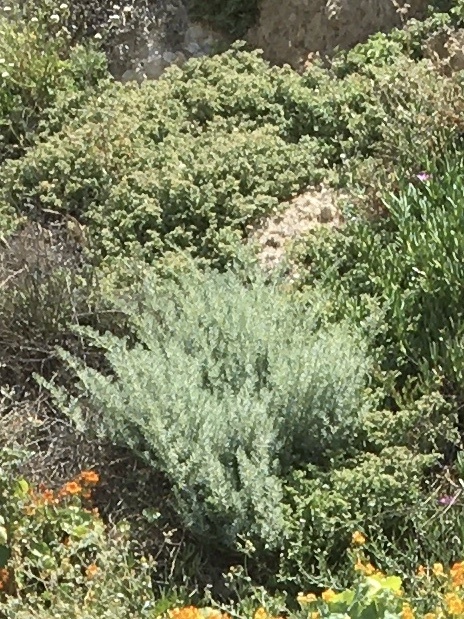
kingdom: Plantae
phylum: Tracheophyta
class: Magnoliopsida
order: Asterales
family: Asteraceae
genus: Artemisia
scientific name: Artemisia californica
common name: California sagebrush
